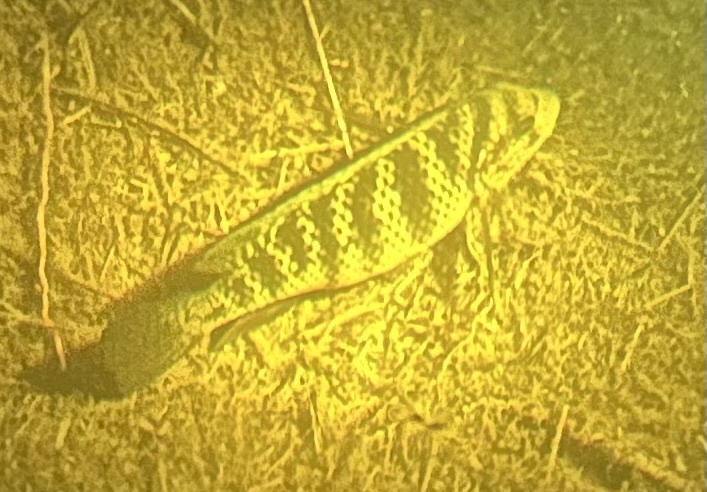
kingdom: Animalia
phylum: Chordata
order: Perciformes
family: Cichlidae
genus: Coptodon
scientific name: Coptodon rendalli
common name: Redbreast tilapia
